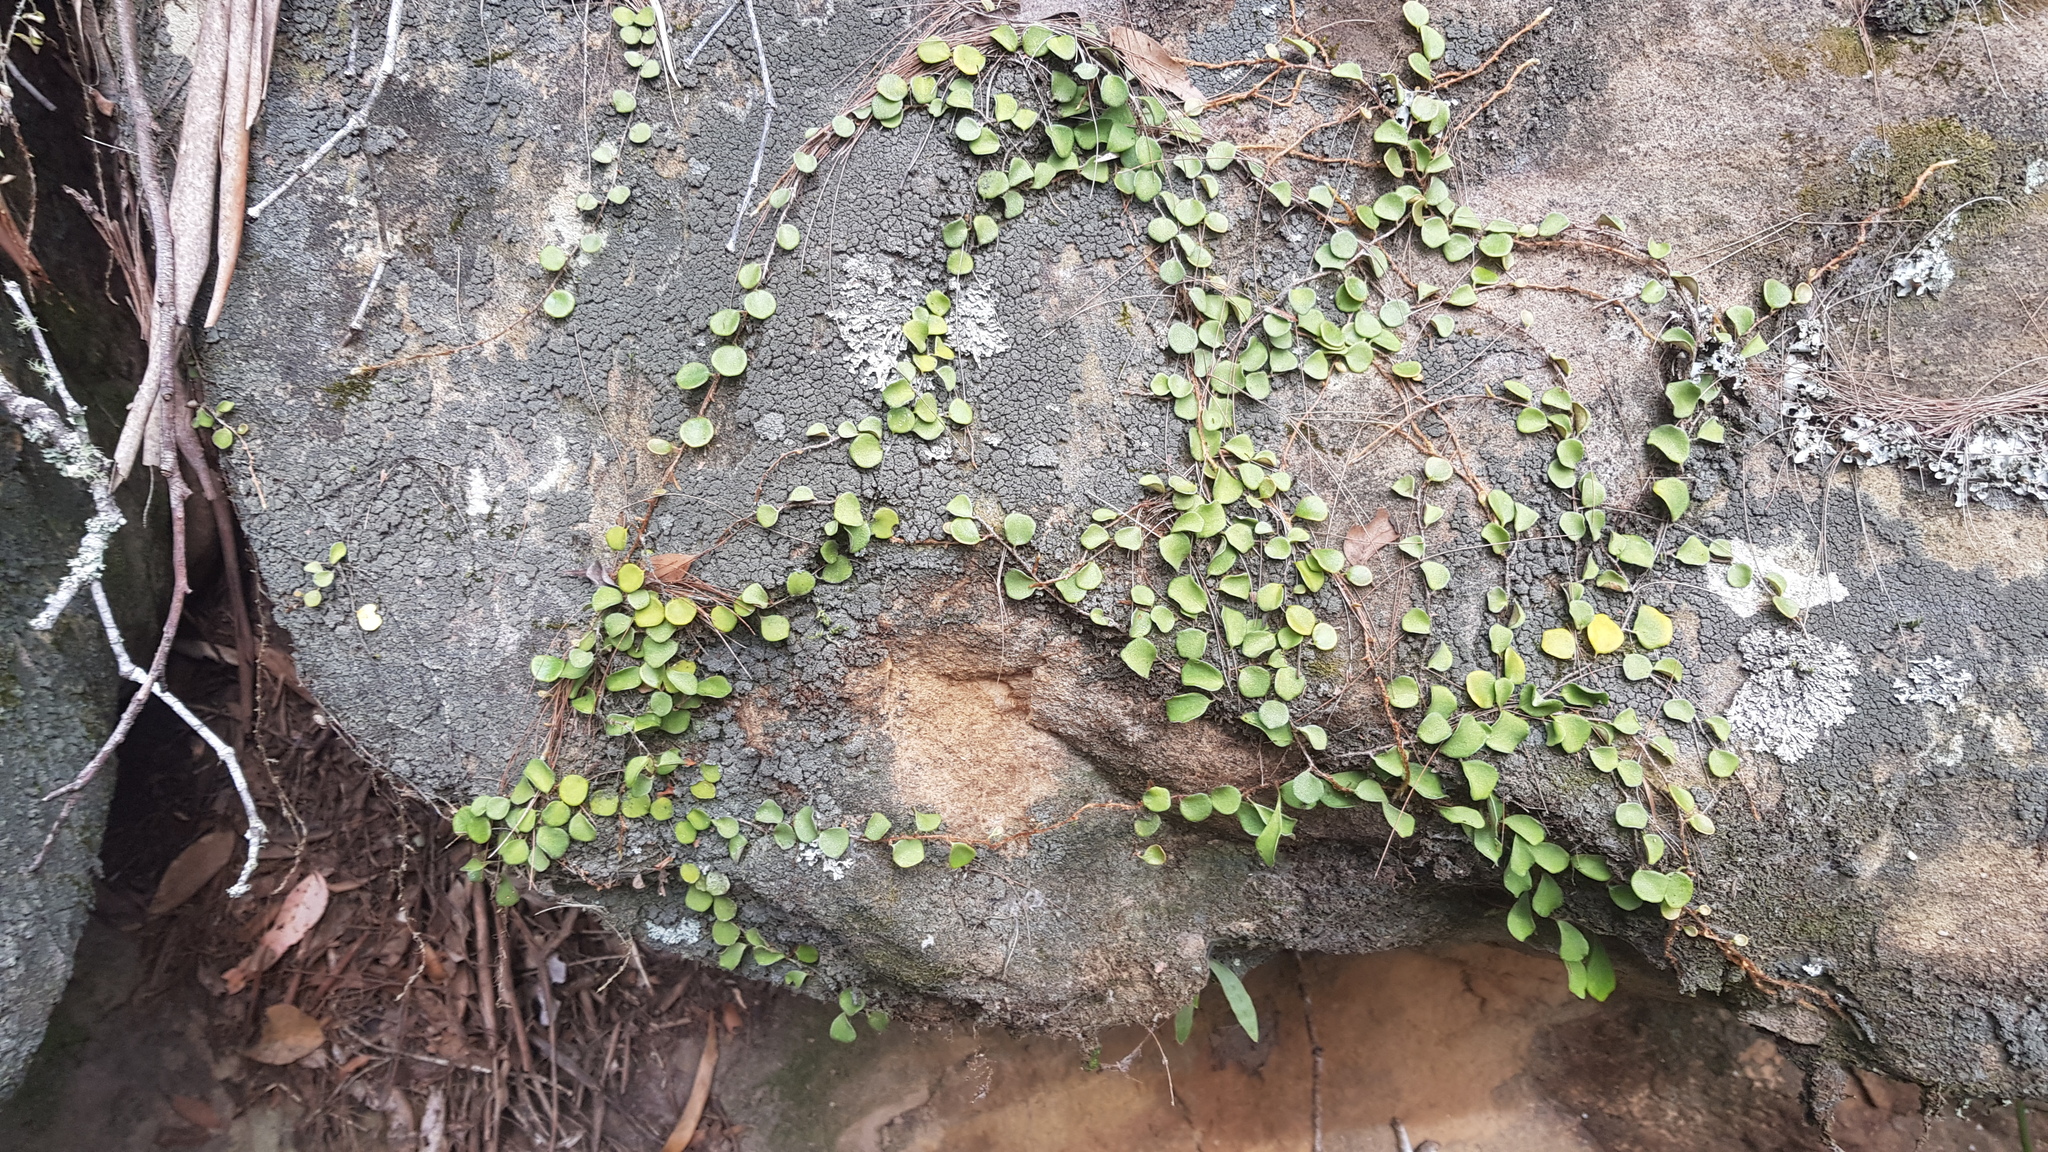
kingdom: Plantae
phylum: Tracheophyta
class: Polypodiopsida
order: Polypodiales
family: Polypodiaceae
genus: Pyrrosia
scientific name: Pyrrosia rupestris
